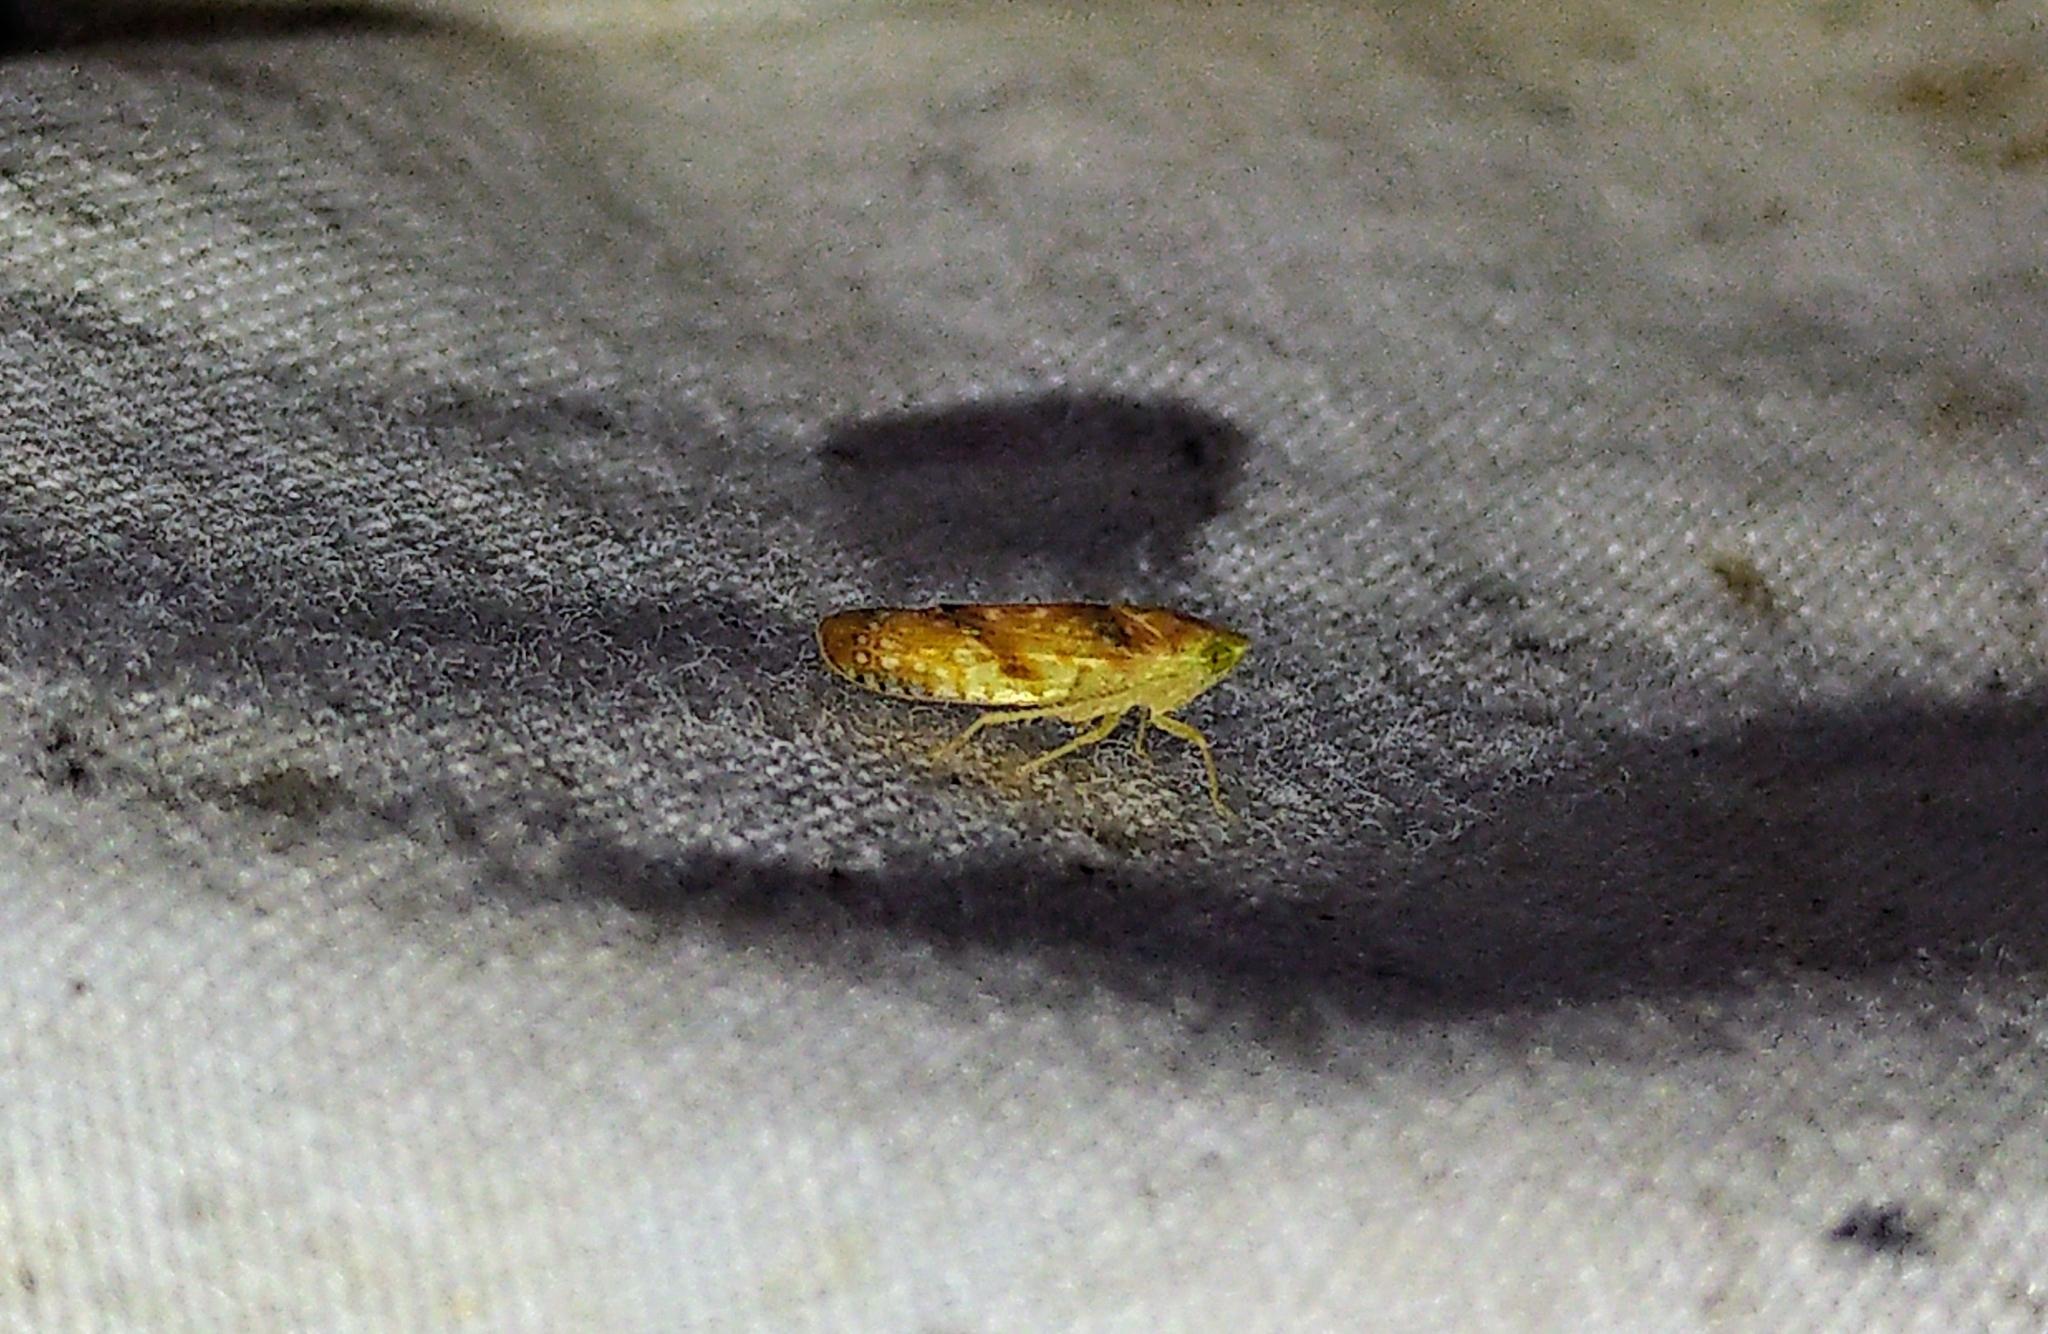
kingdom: Animalia
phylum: Arthropoda
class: Insecta
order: Hemiptera
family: Cicadellidae
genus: Fitchana
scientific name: Fitchana vitellina
